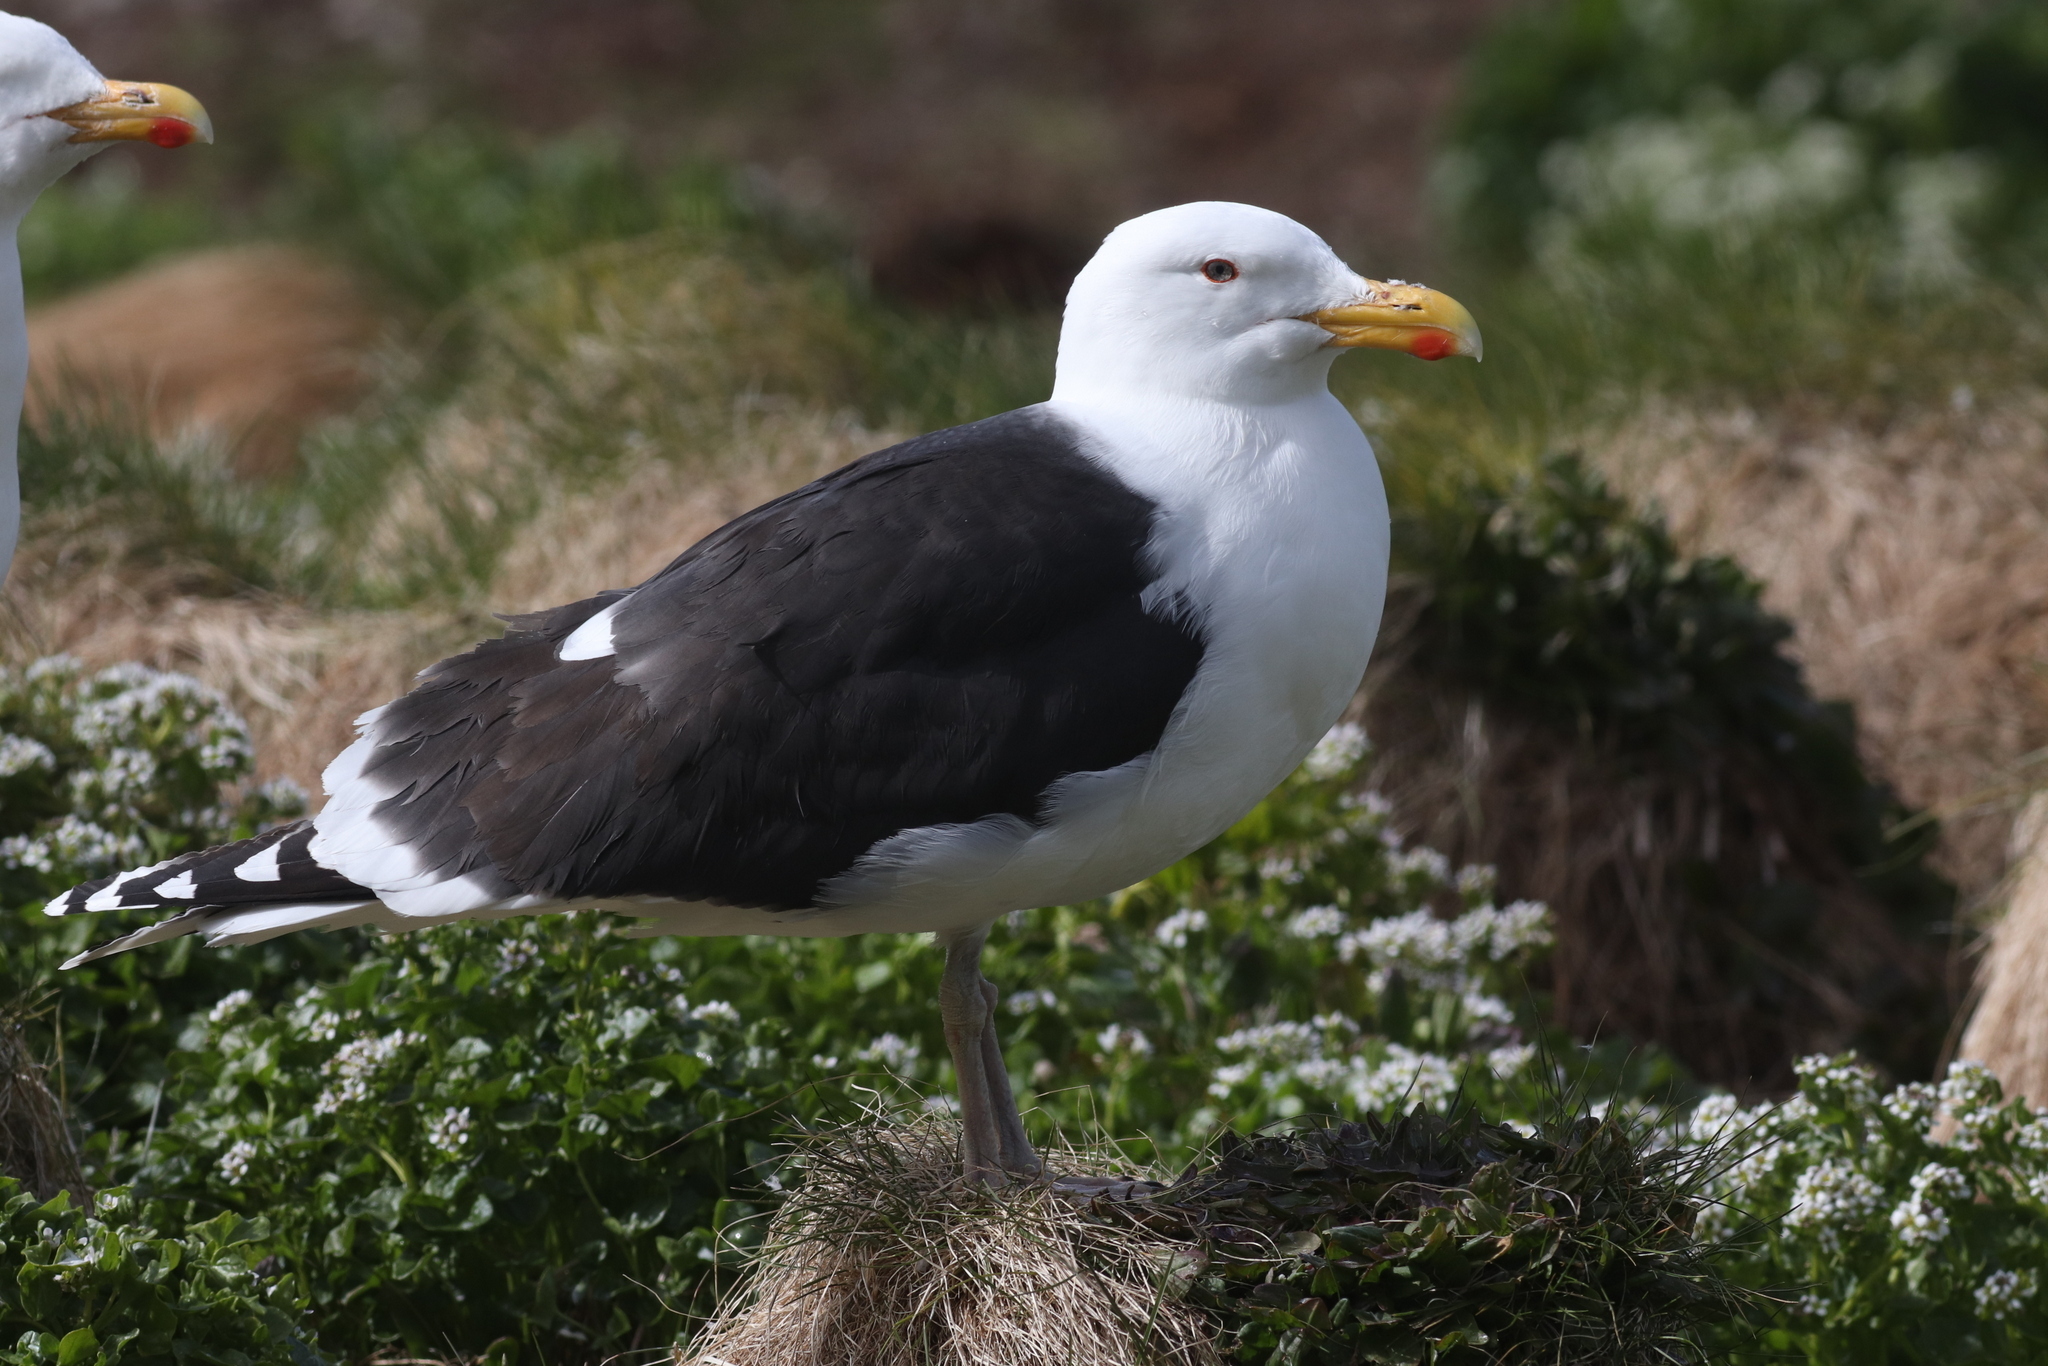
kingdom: Animalia
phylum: Chordata
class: Aves
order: Charadriiformes
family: Laridae
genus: Larus
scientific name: Larus marinus
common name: Great black-backed gull
